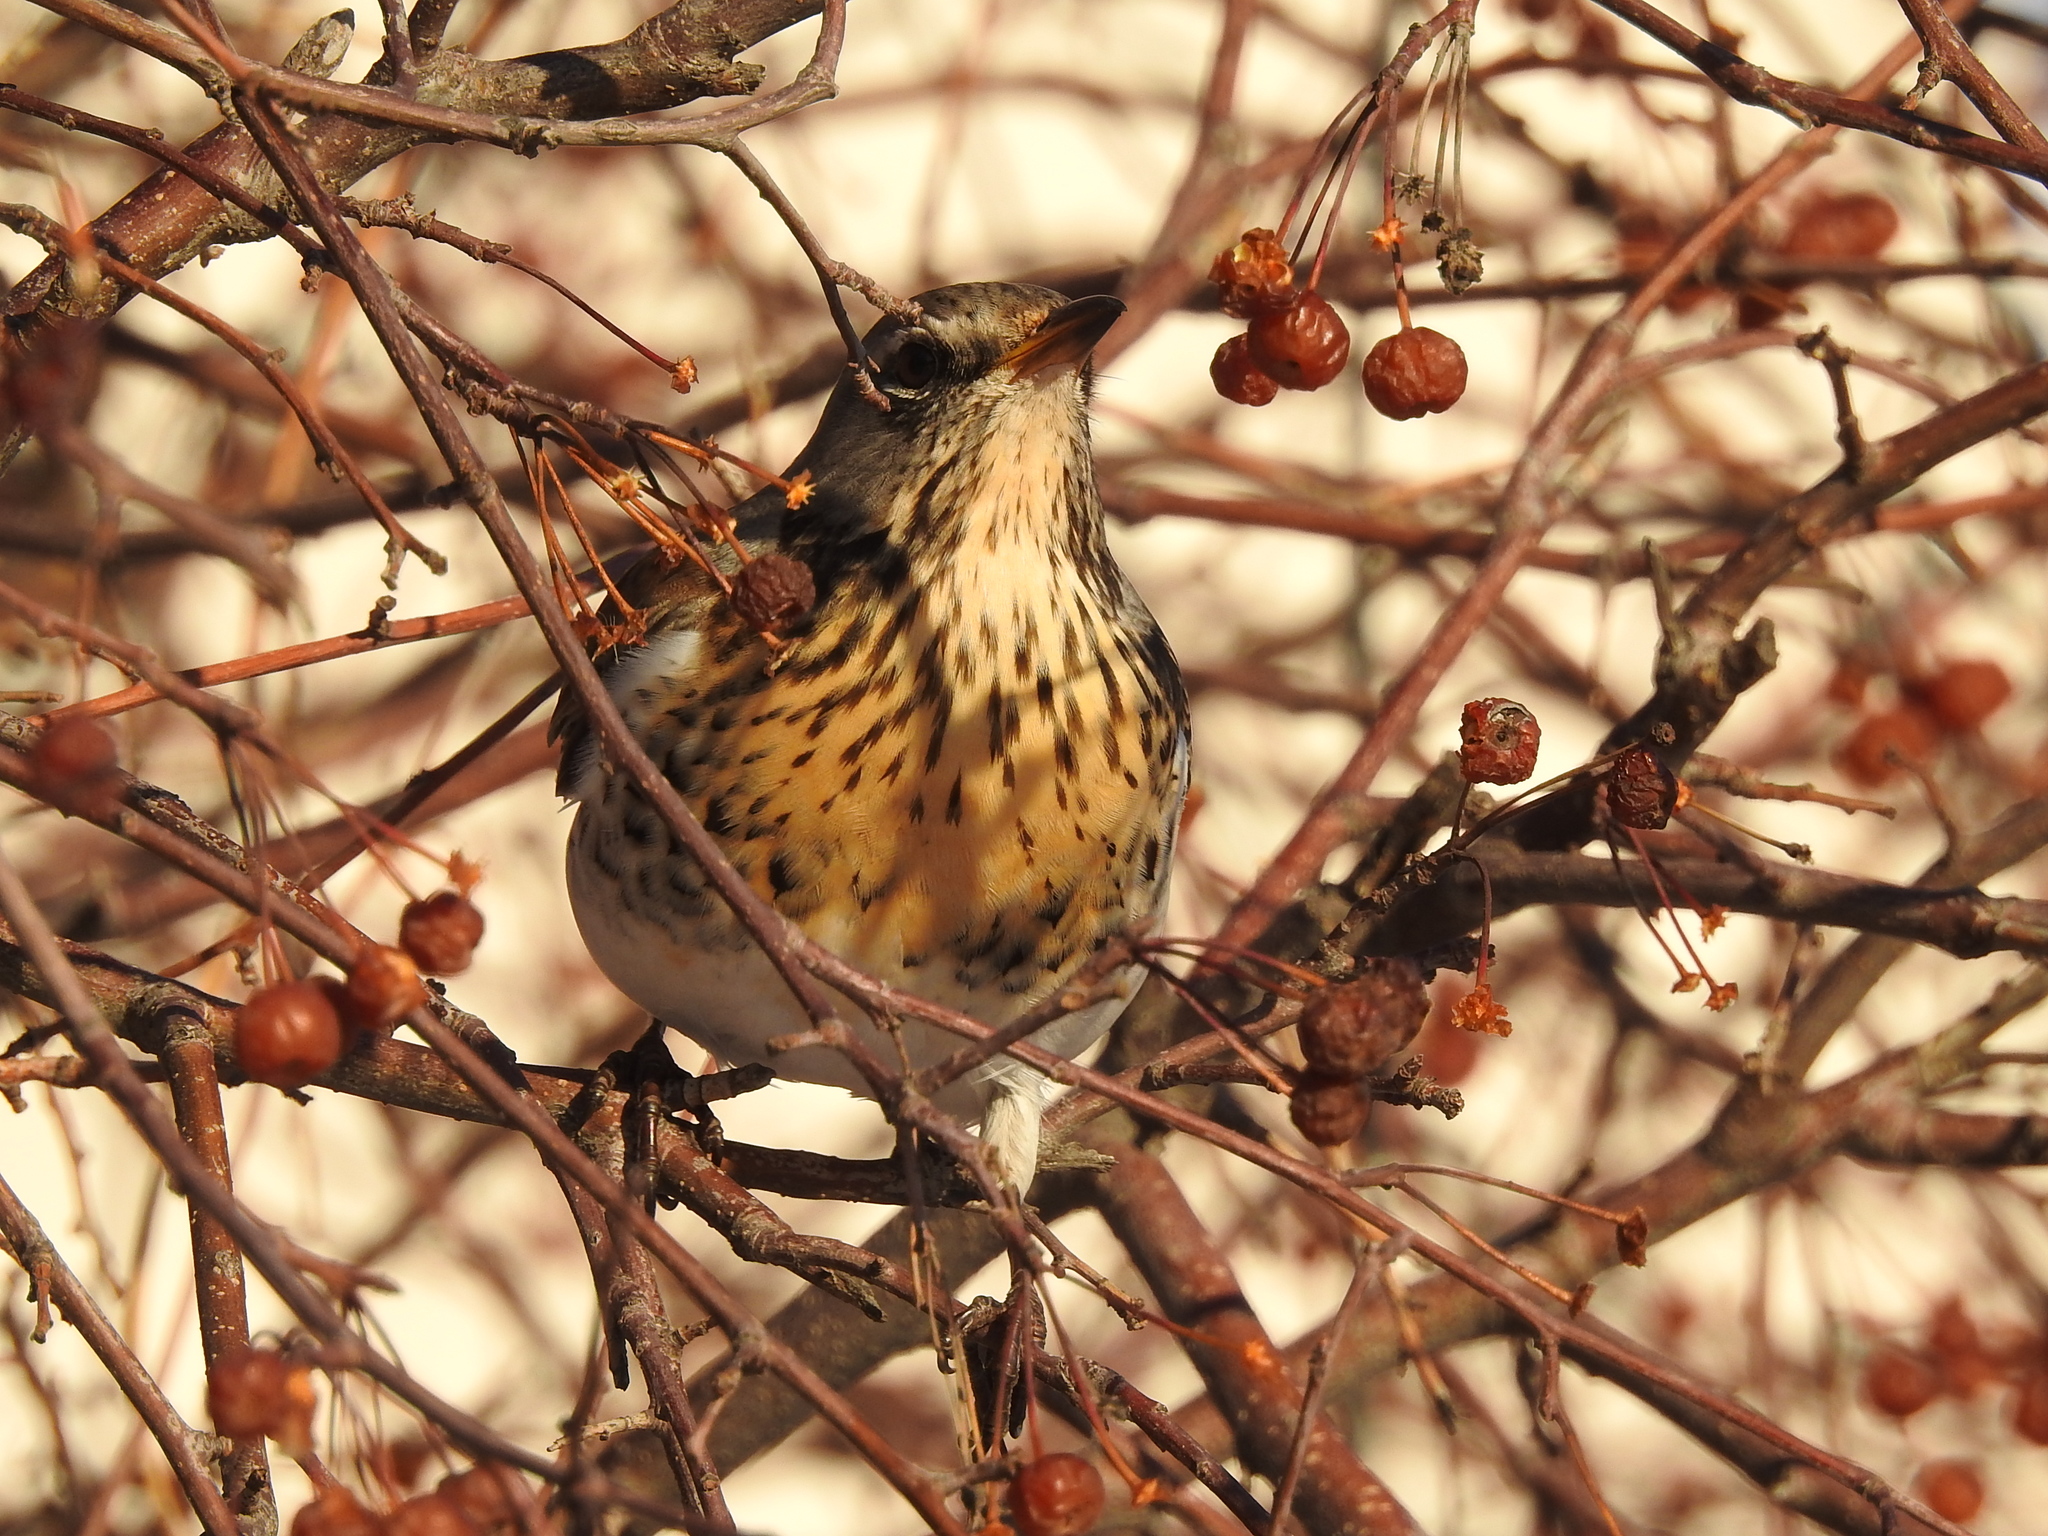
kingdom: Animalia
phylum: Chordata
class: Aves
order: Passeriformes
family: Turdidae
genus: Turdus
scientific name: Turdus pilaris
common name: Fieldfare
